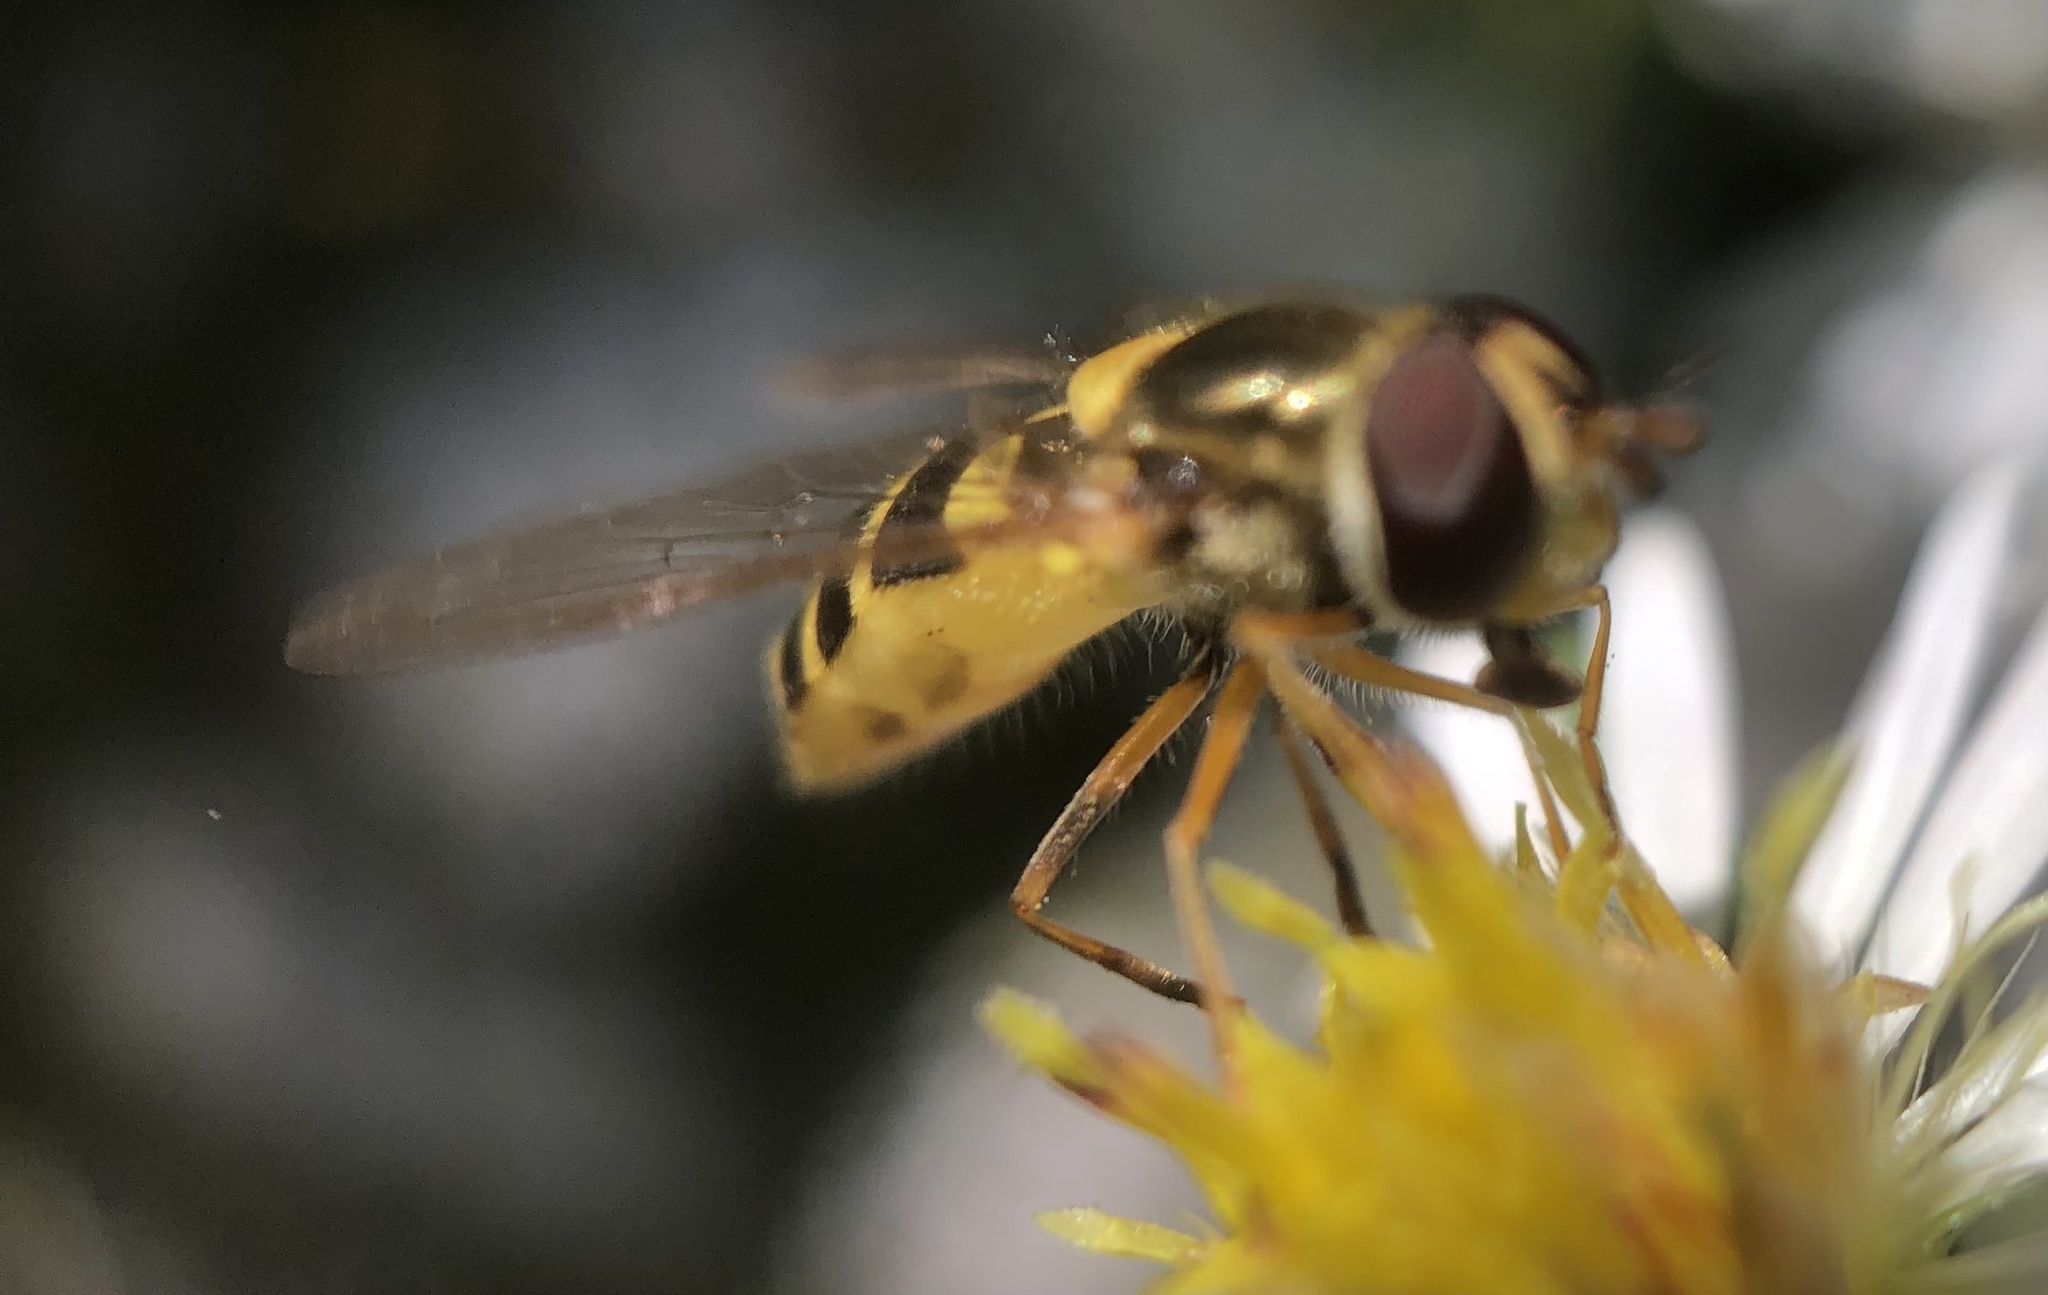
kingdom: Animalia
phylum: Arthropoda
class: Insecta
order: Diptera
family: Syrphidae
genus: Syrphus
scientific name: Syrphus rectus
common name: Yellow-legged flower fly
